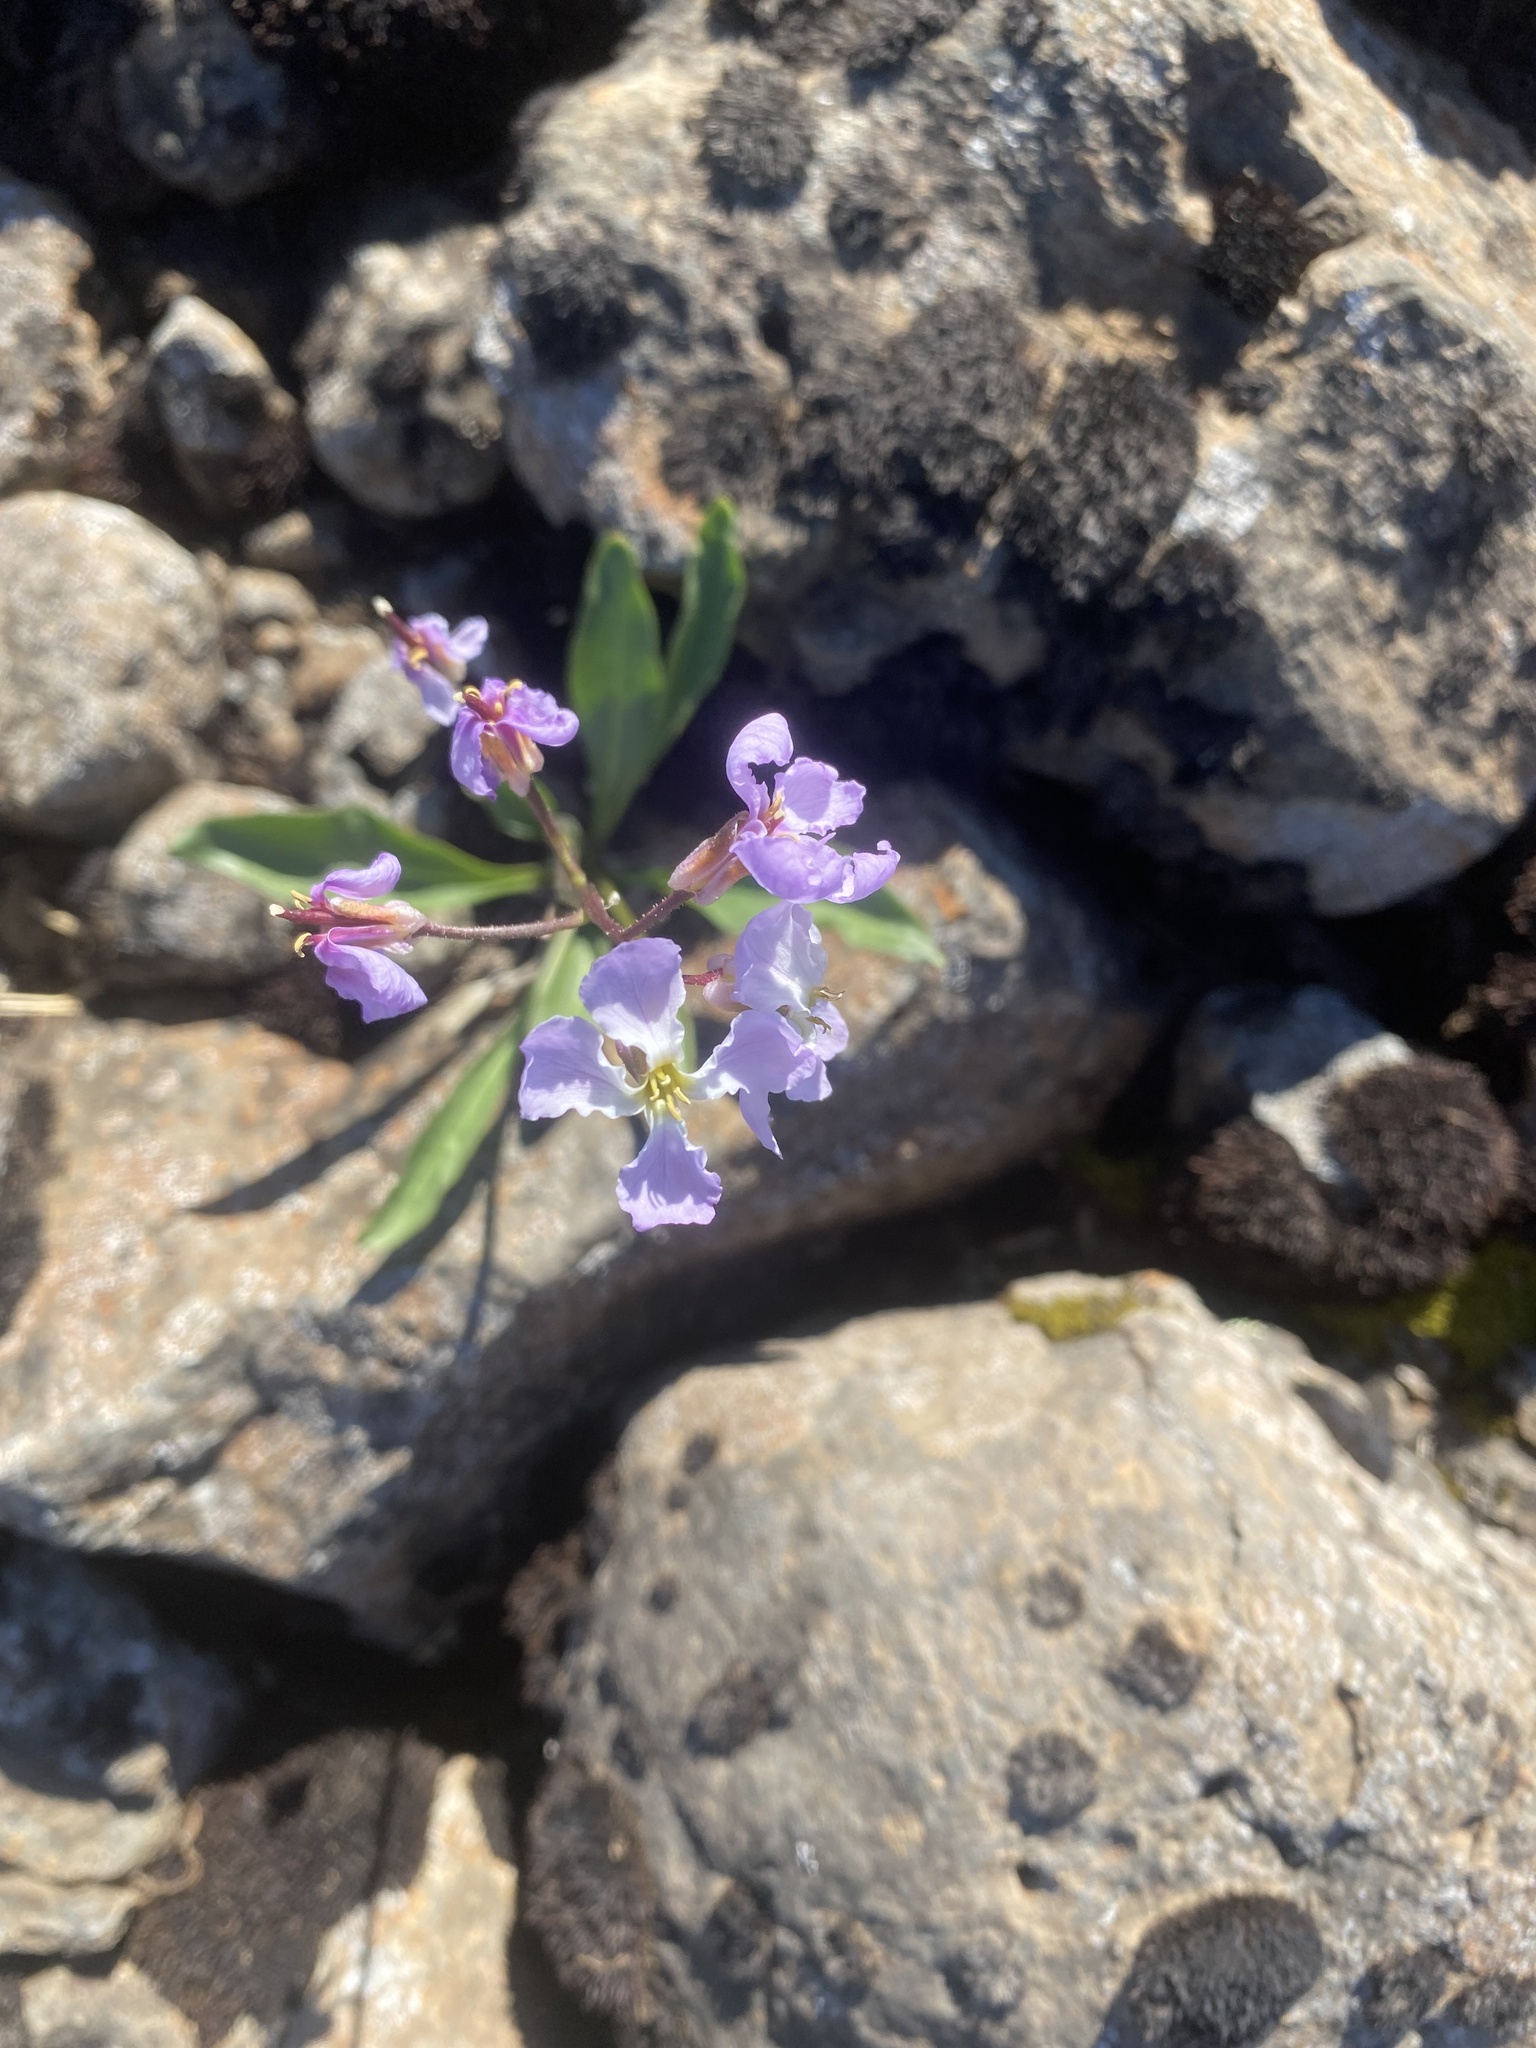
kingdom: Plantae
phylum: Tracheophyta
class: Magnoliopsida
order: Brassicales
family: Brassicaceae
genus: Parrya
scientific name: Parrya nudicaulis
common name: Naked-stemmed false wallflower
